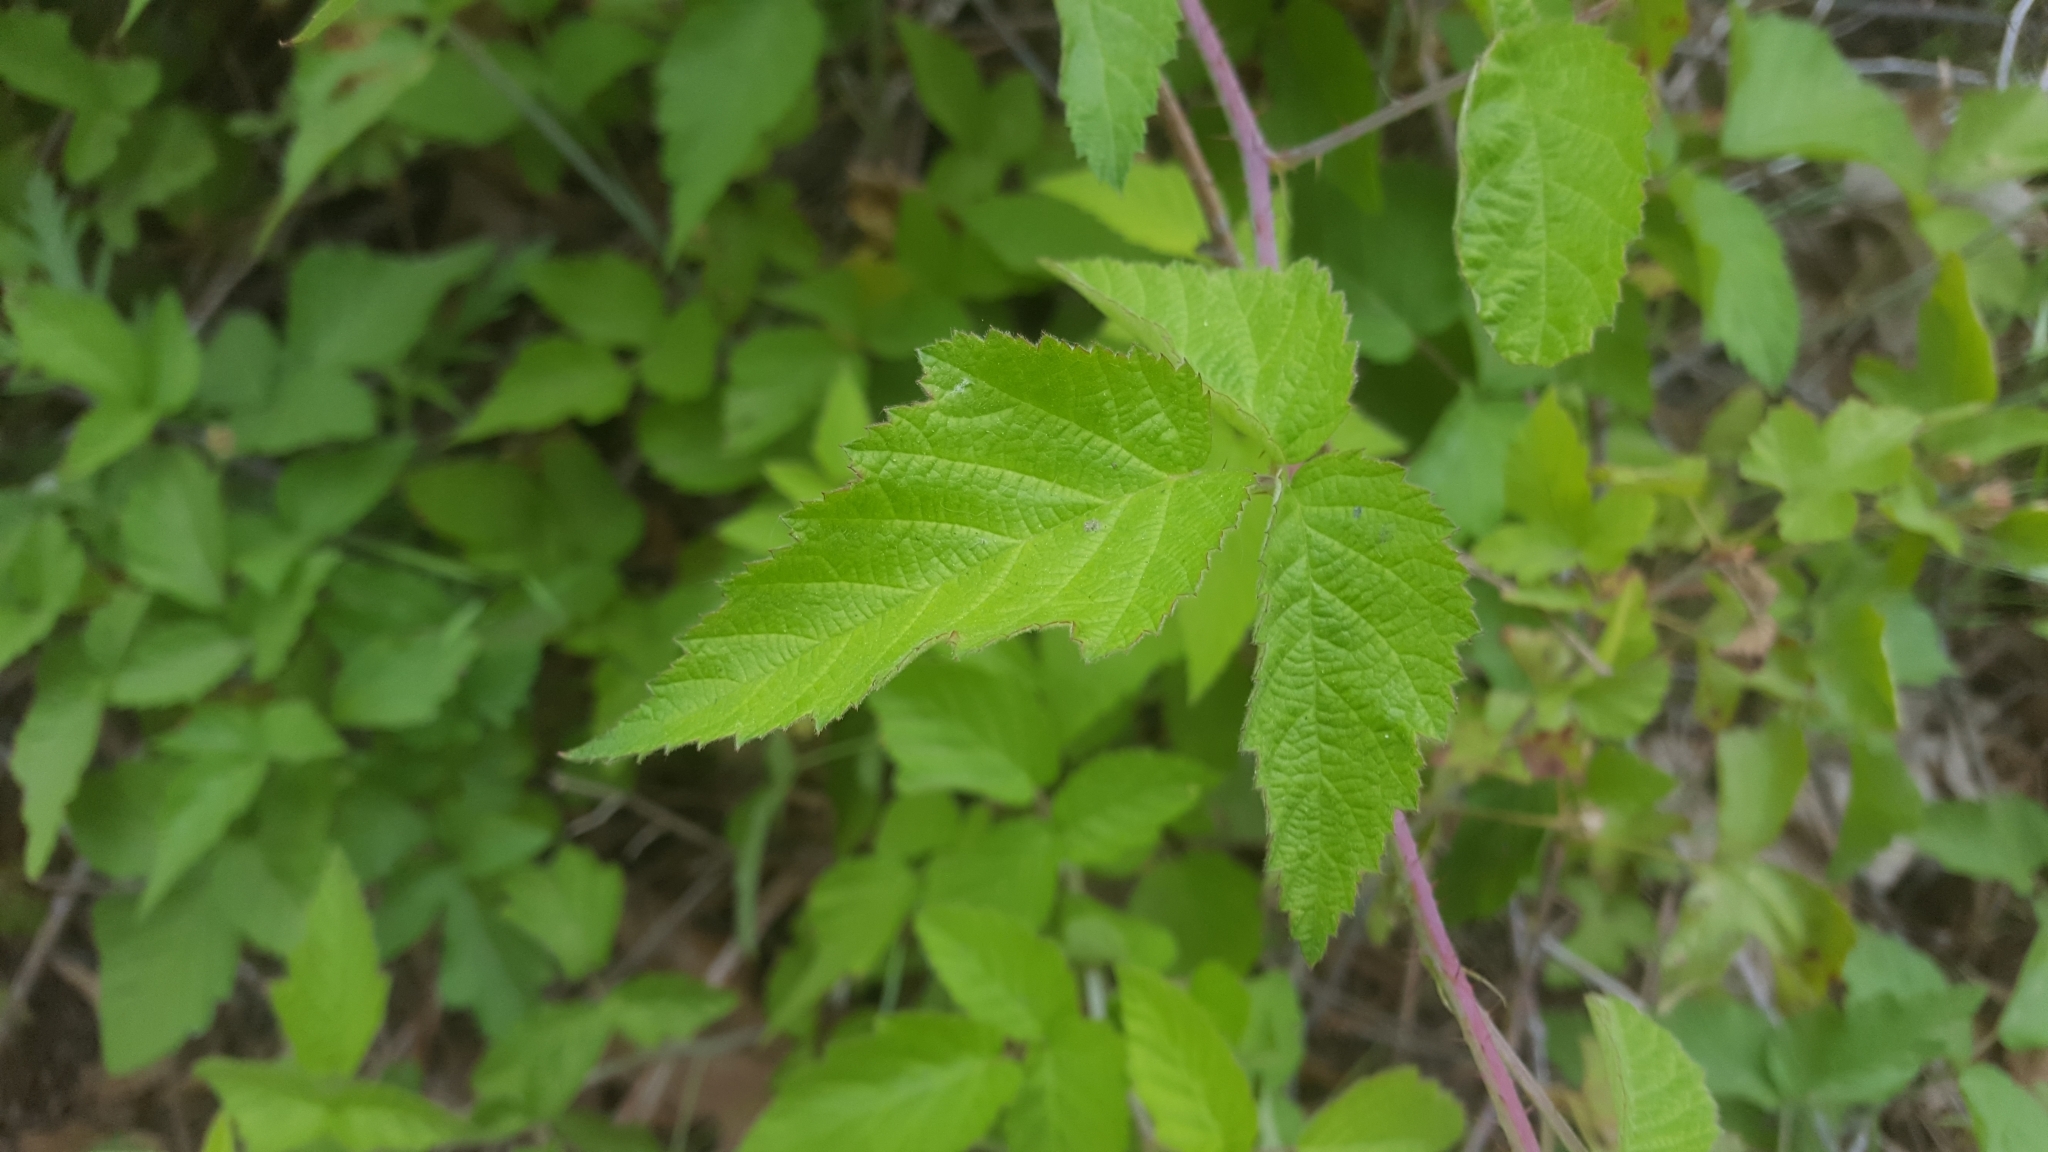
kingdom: Plantae
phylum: Tracheophyta
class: Magnoliopsida
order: Rosales
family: Rosaceae
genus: Rubus
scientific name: Rubus ursinus
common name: Pacific blackberry
